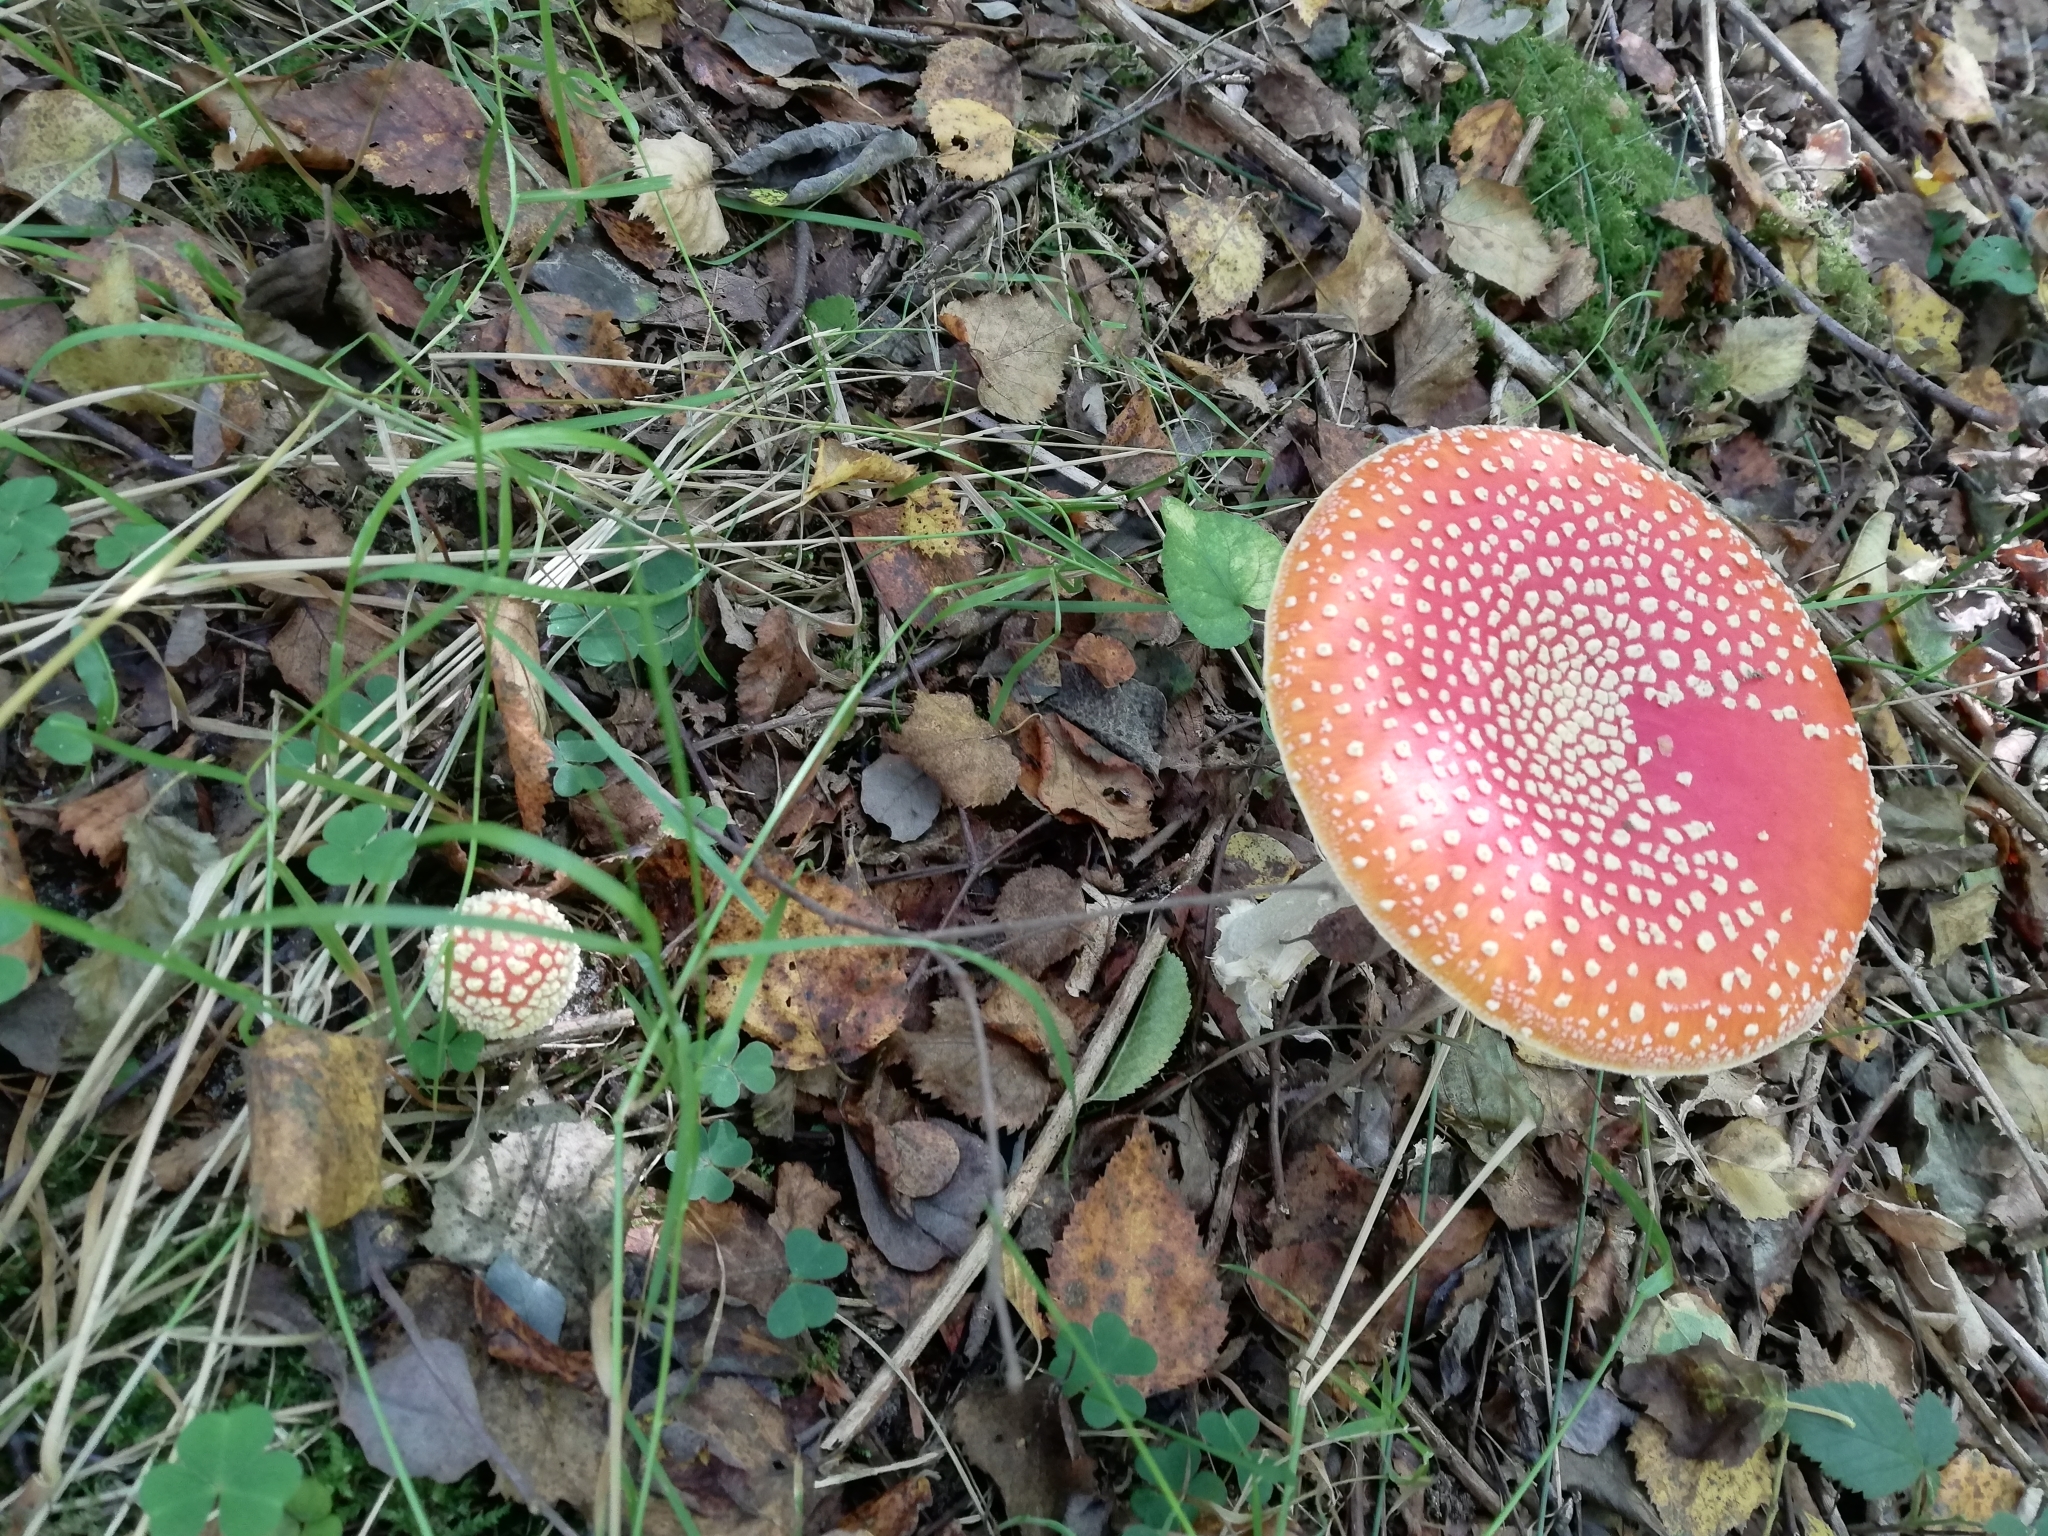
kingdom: Fungi
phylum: Basidiomycota
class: Agaricomycetes
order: Agaricales
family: Amanitaceae
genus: Amanita
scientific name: Amanita muscaria
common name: Fly agaric
